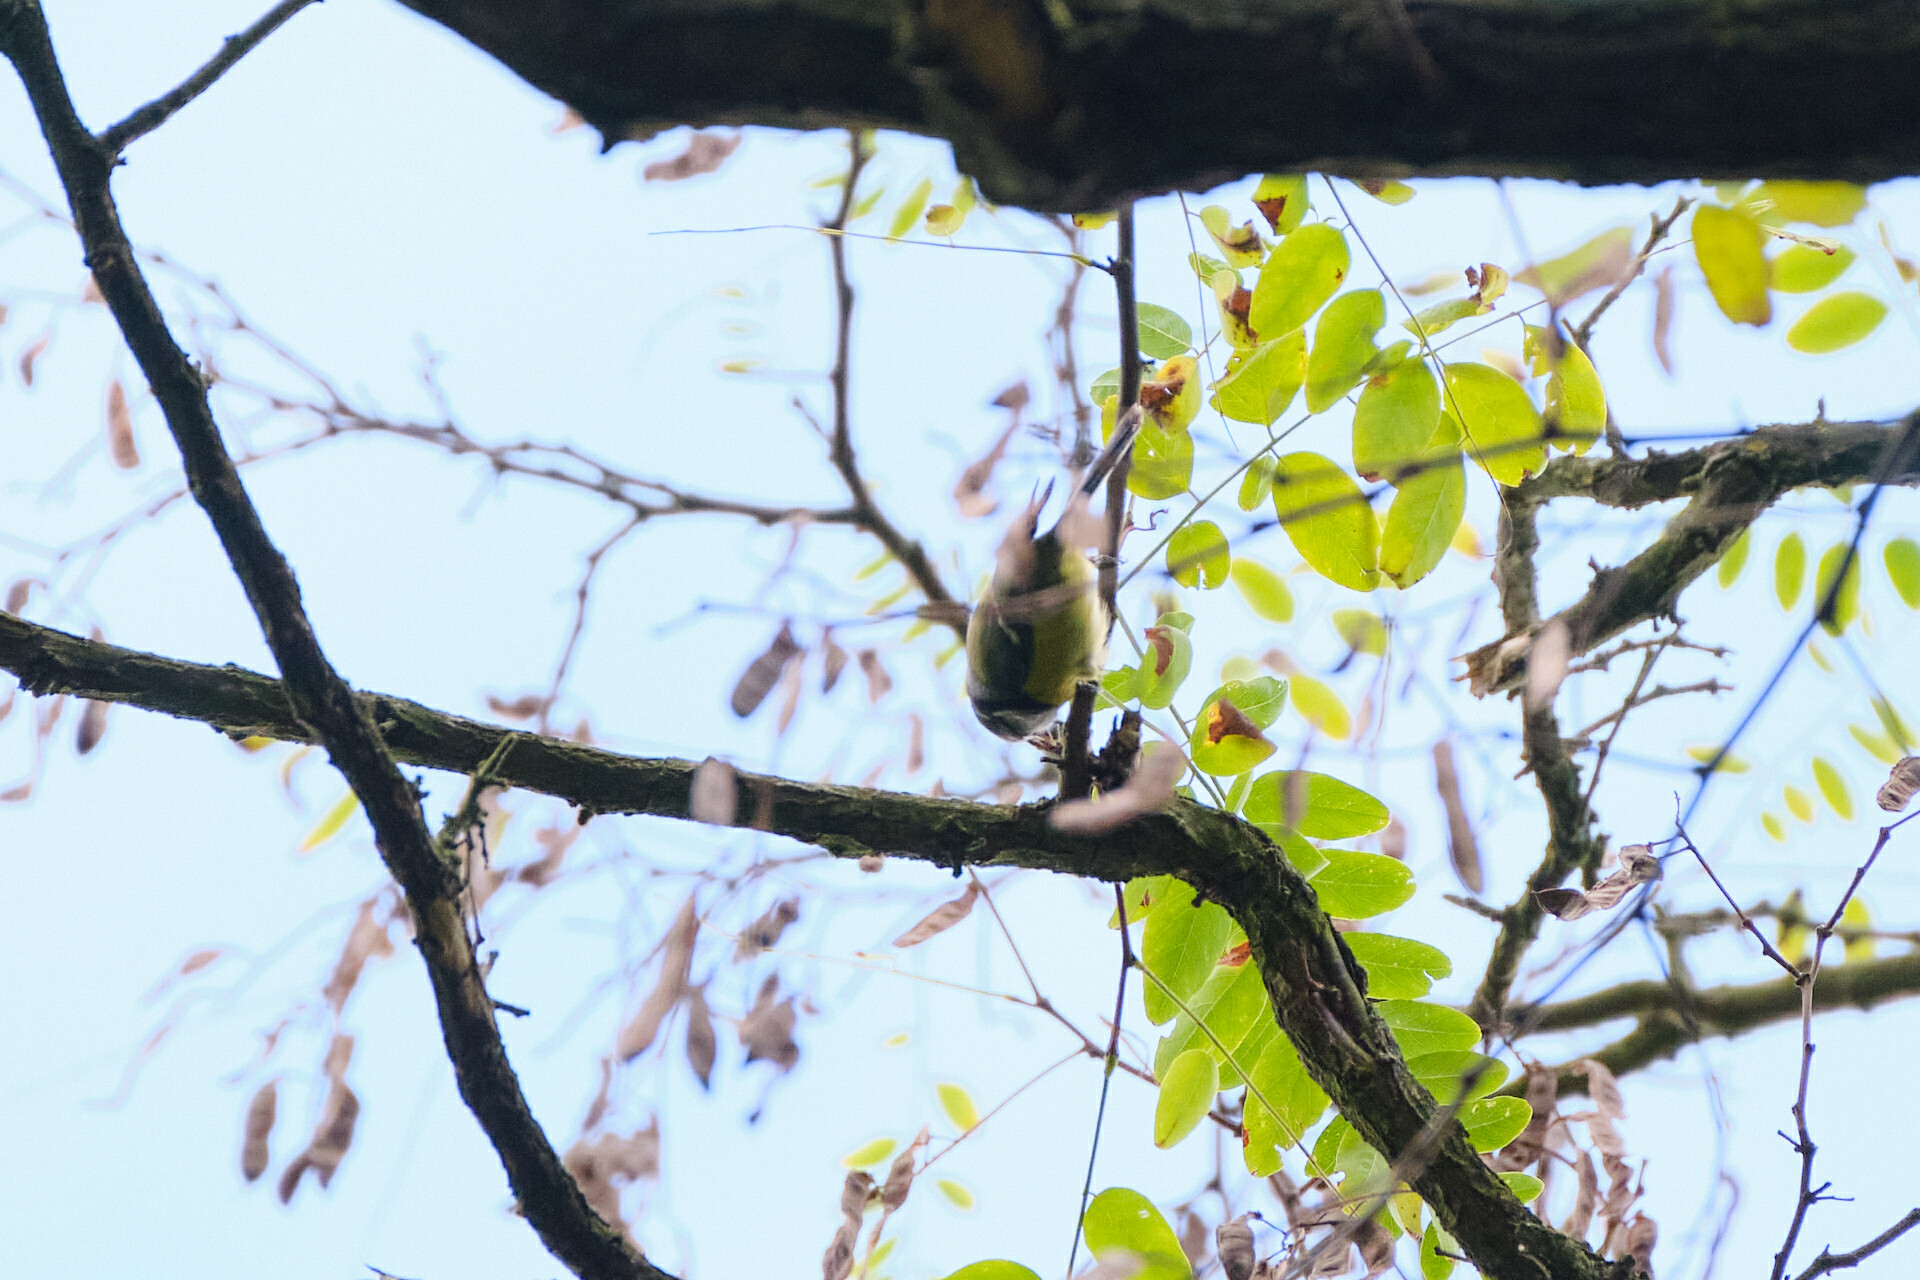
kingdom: Animalia
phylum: Chordata
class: Aves
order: Passeriformes
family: Paridae
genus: Cyanistes
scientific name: Cyanistes caeruleus
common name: Eurasian blue tit
